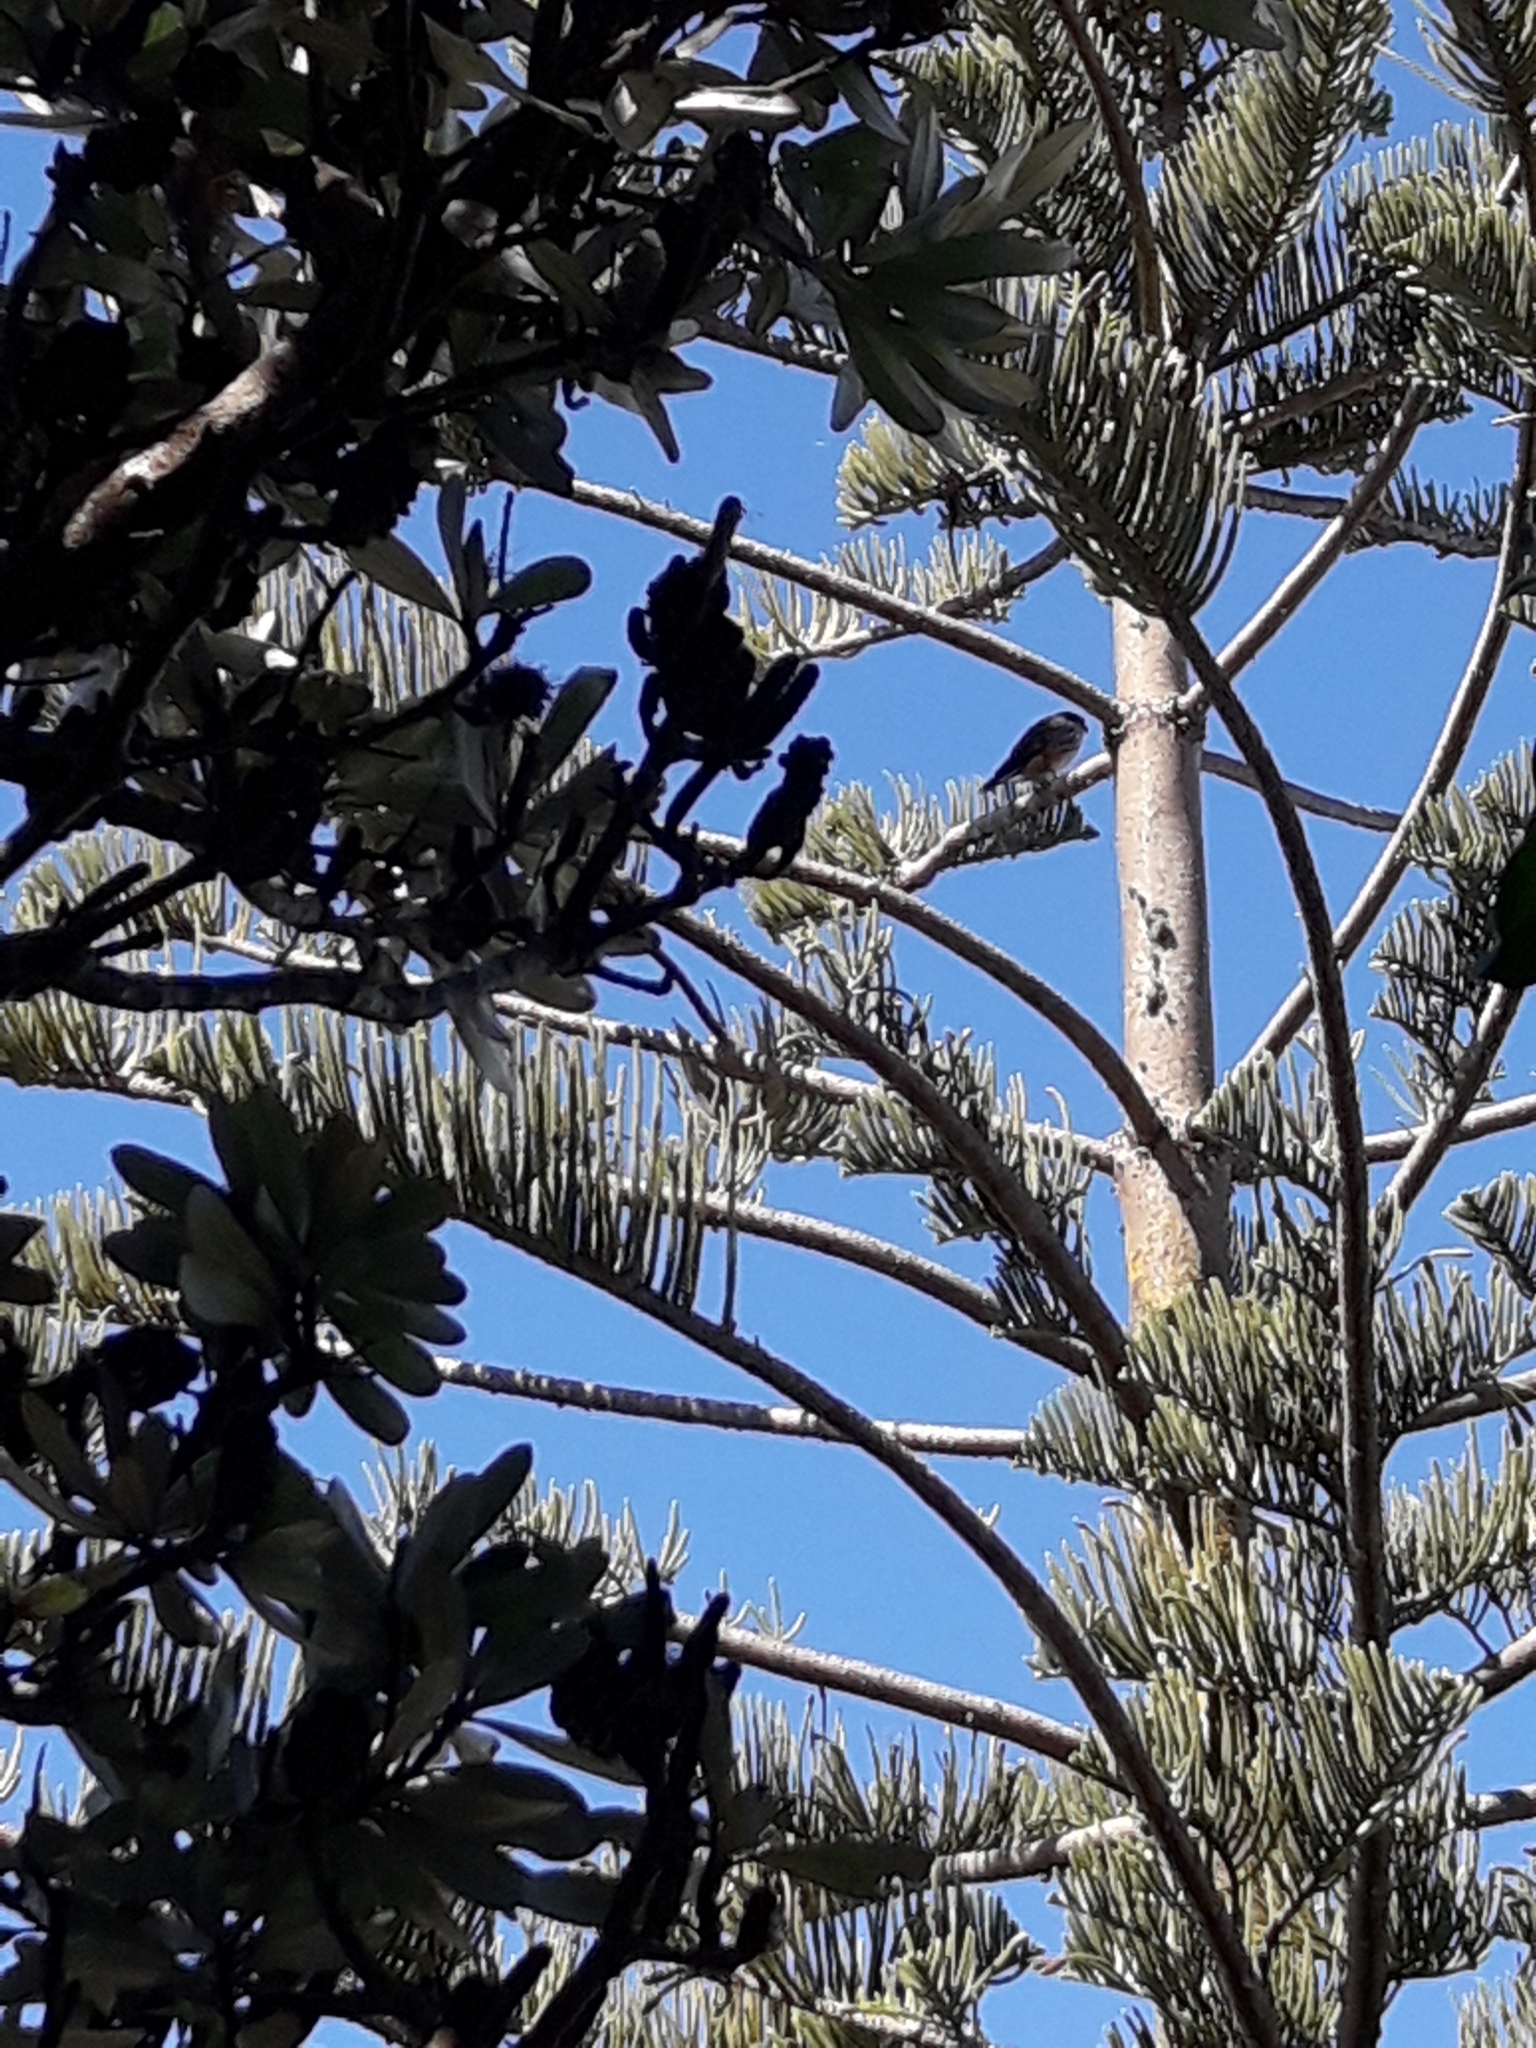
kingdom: Animalia
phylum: Chordata
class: Aves
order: Falconiformes
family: Falconidae
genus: Falco
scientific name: Falco novaeseelandiae
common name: New zealand falcon
